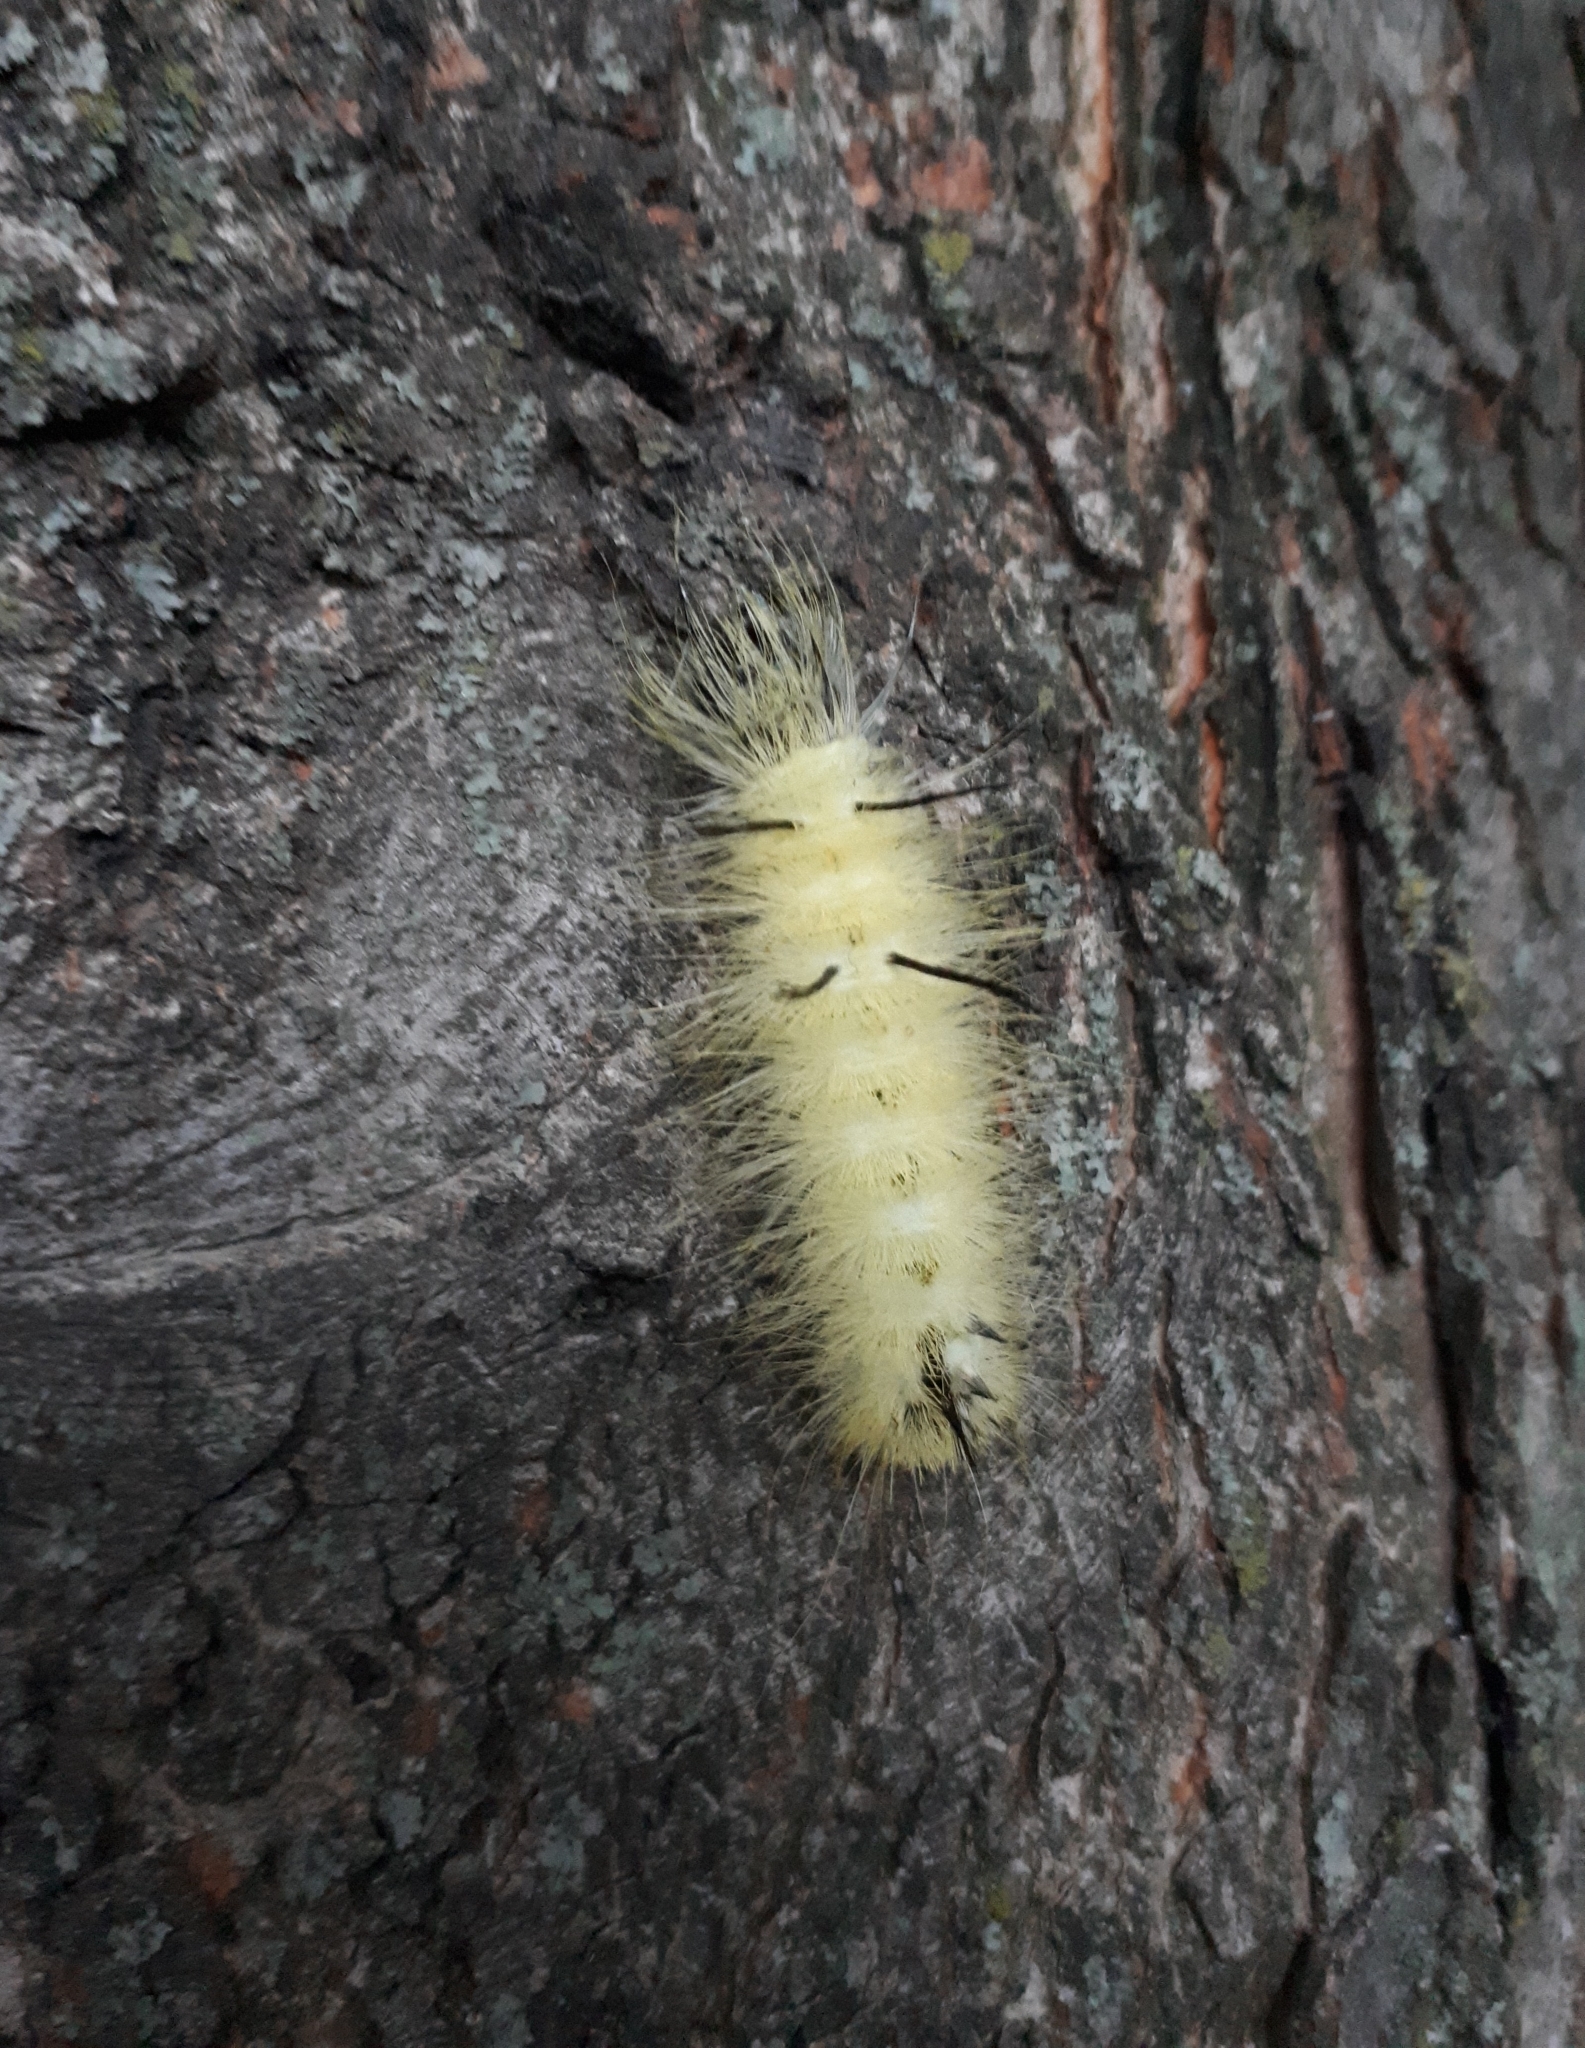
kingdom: Animalia
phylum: Arthropoda
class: Insecta
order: Lepidoptera
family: Noctuidae
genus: Acronicta
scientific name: Acronicta americana
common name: American dagger
